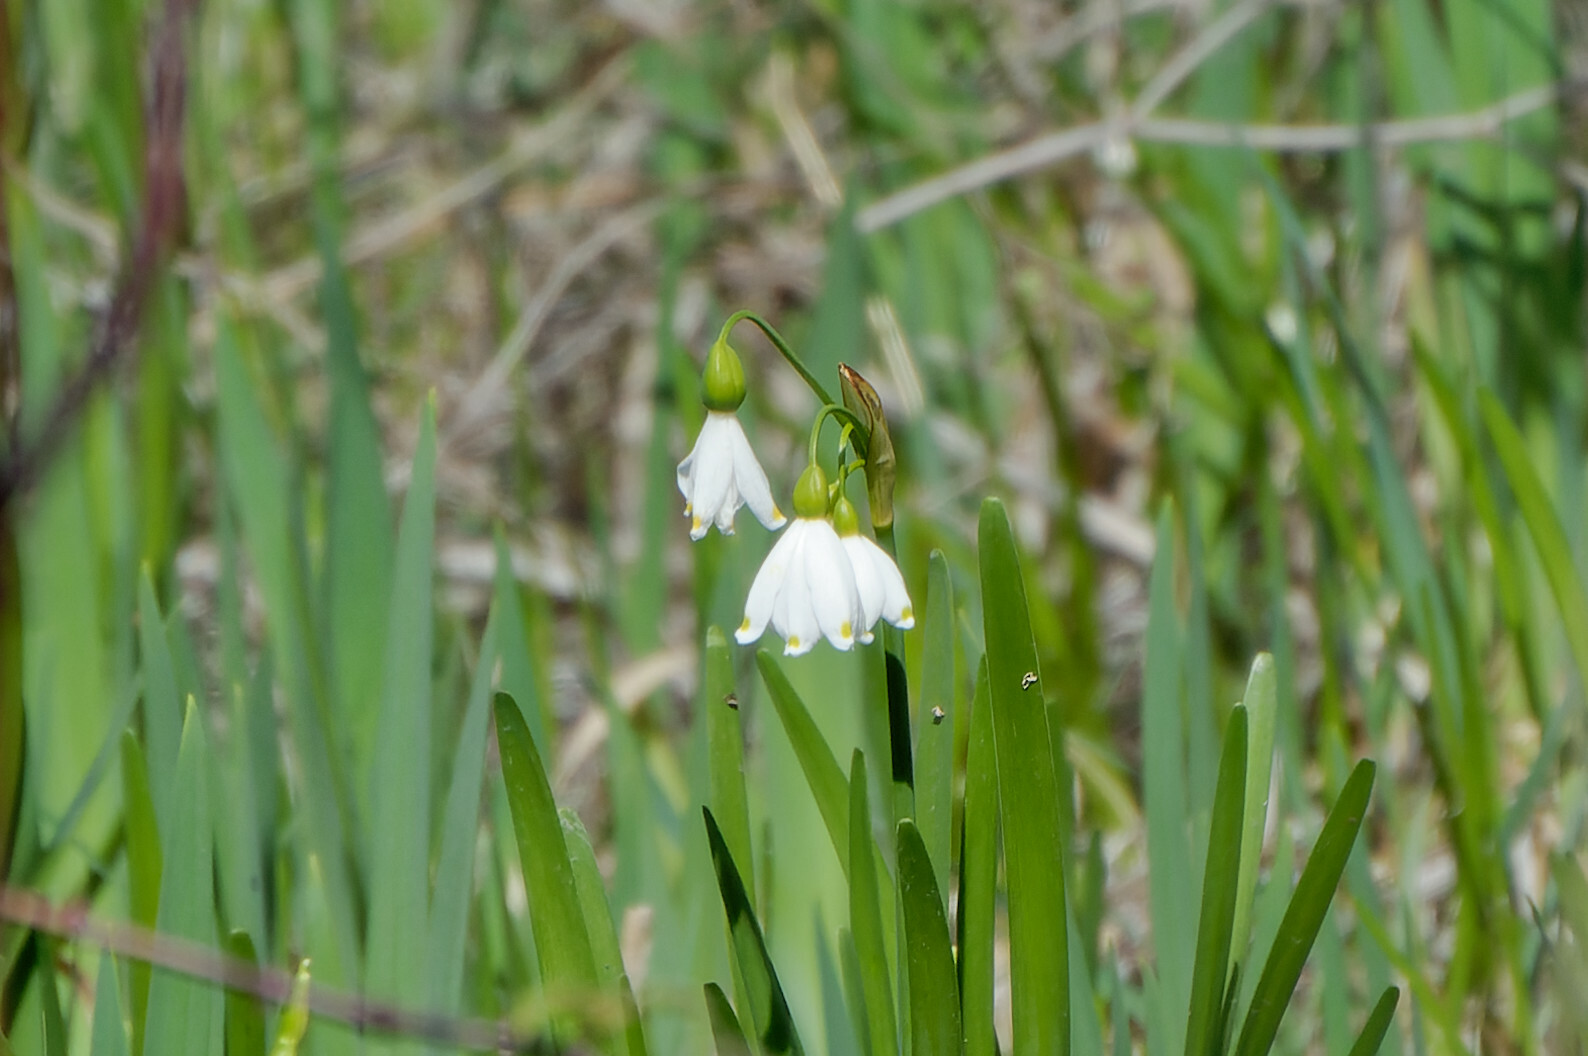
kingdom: Plantae
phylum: Tracheophyta
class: Liliopsida
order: Asparagales
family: Amaryllidaceae
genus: Leucojum
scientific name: Leucojum aestivum
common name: Summer snowflake
